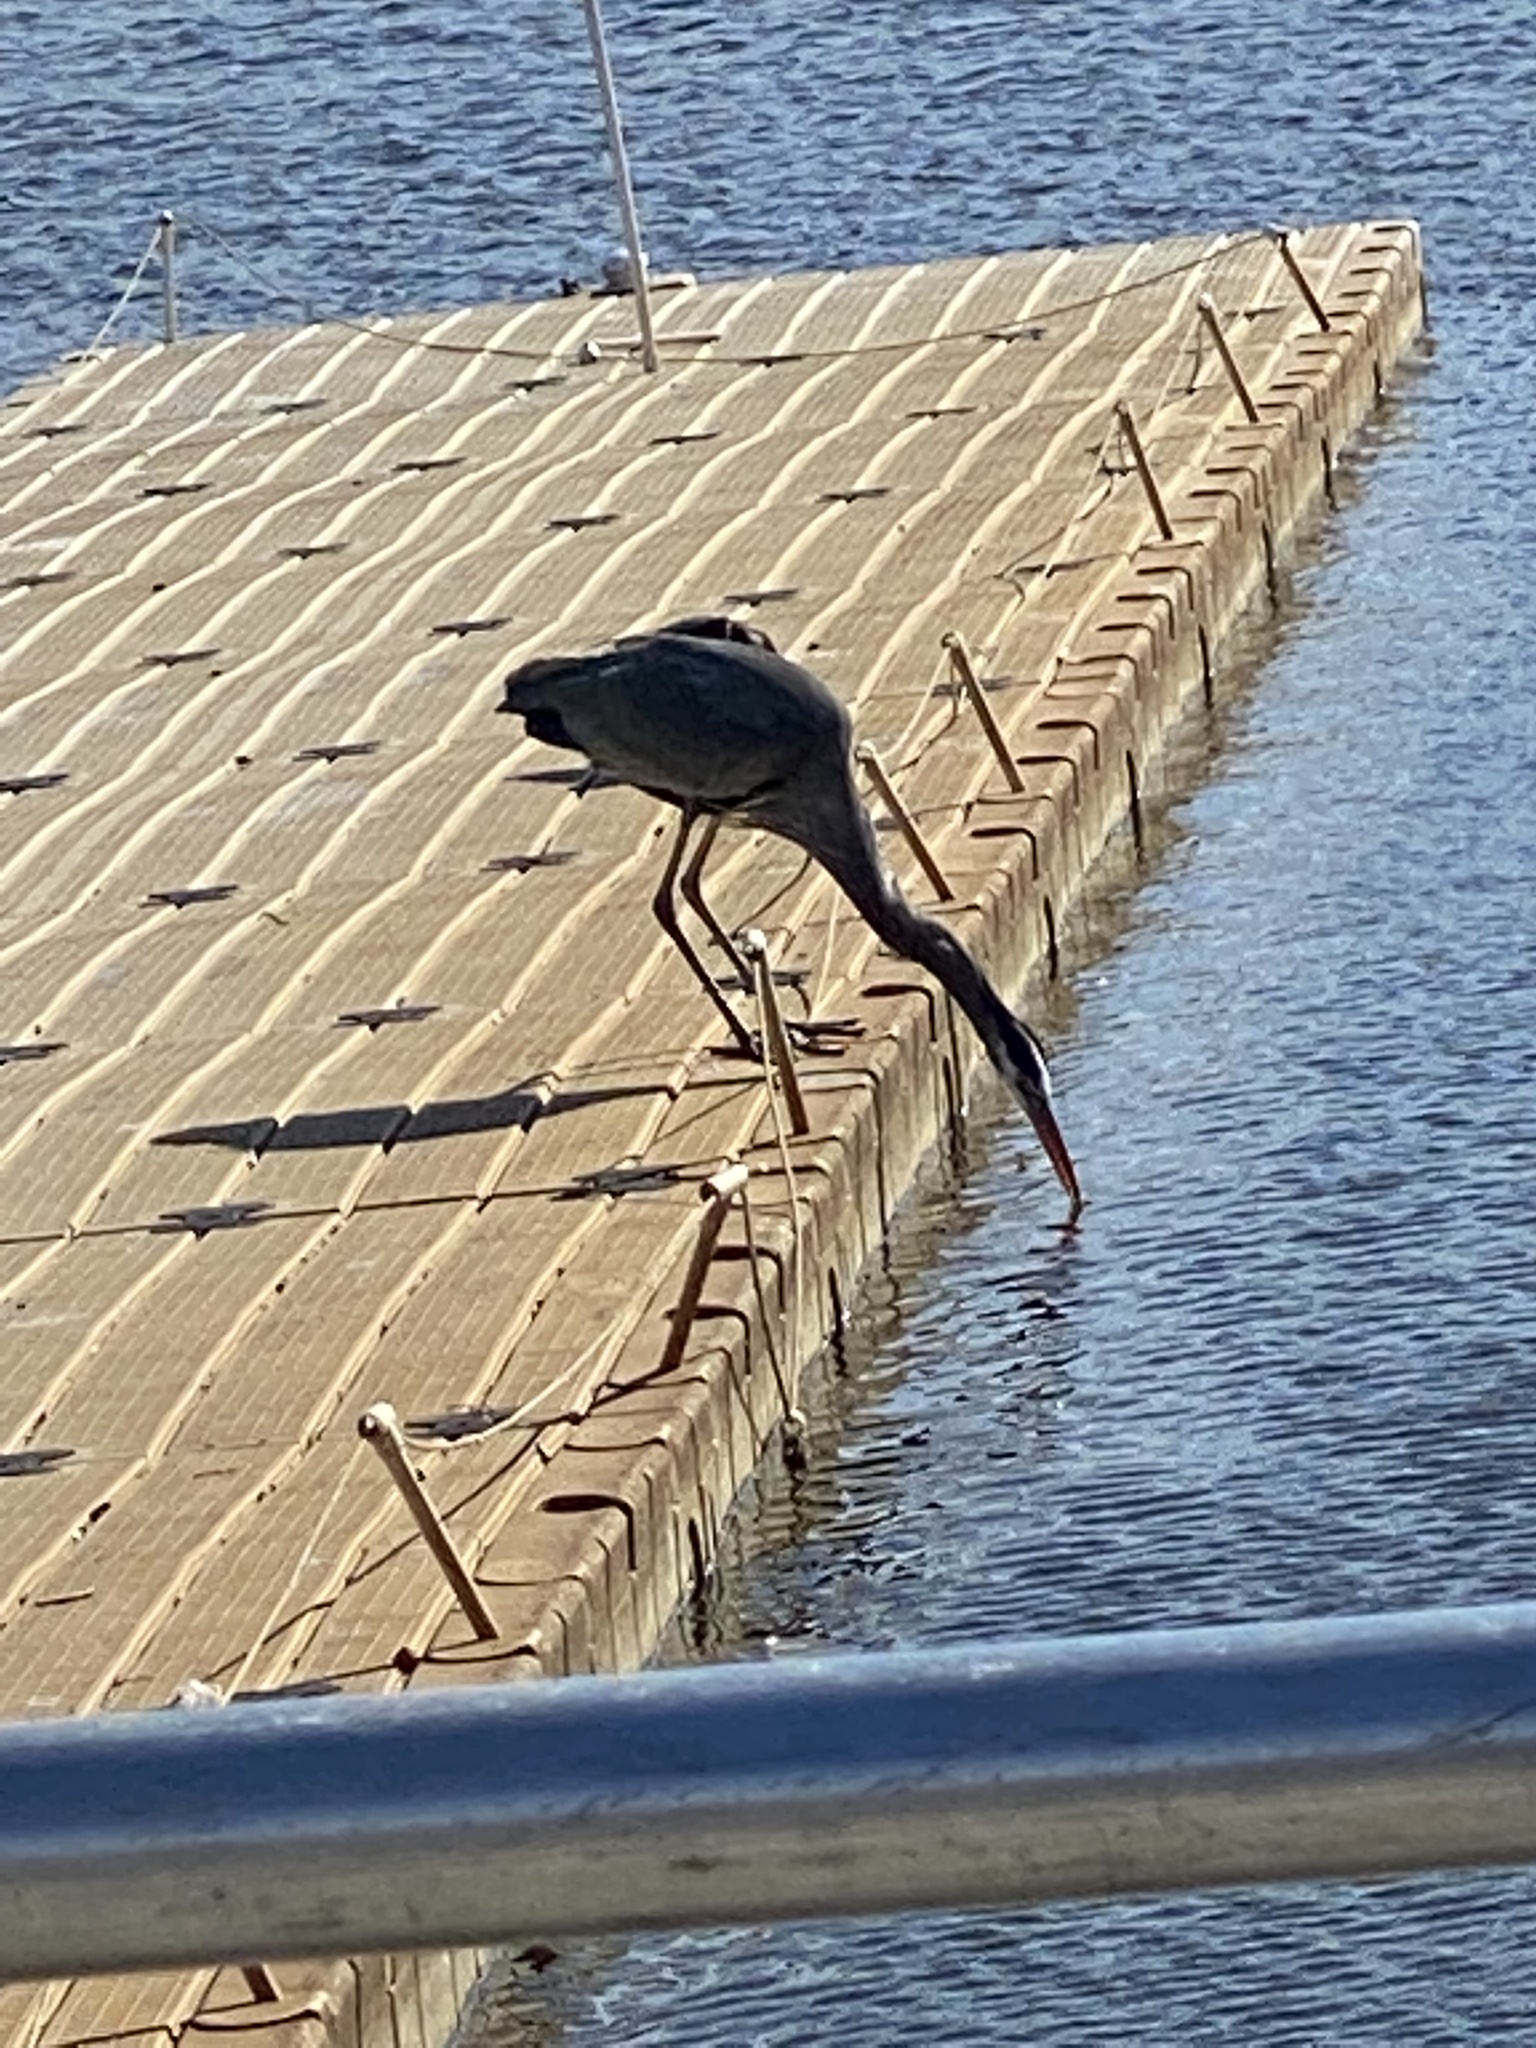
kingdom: Animalia
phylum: Chordata
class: Aves
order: Pelecaniformes
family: Ardeidae
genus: Ardea
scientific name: Ardea herodias
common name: Great blue heron
